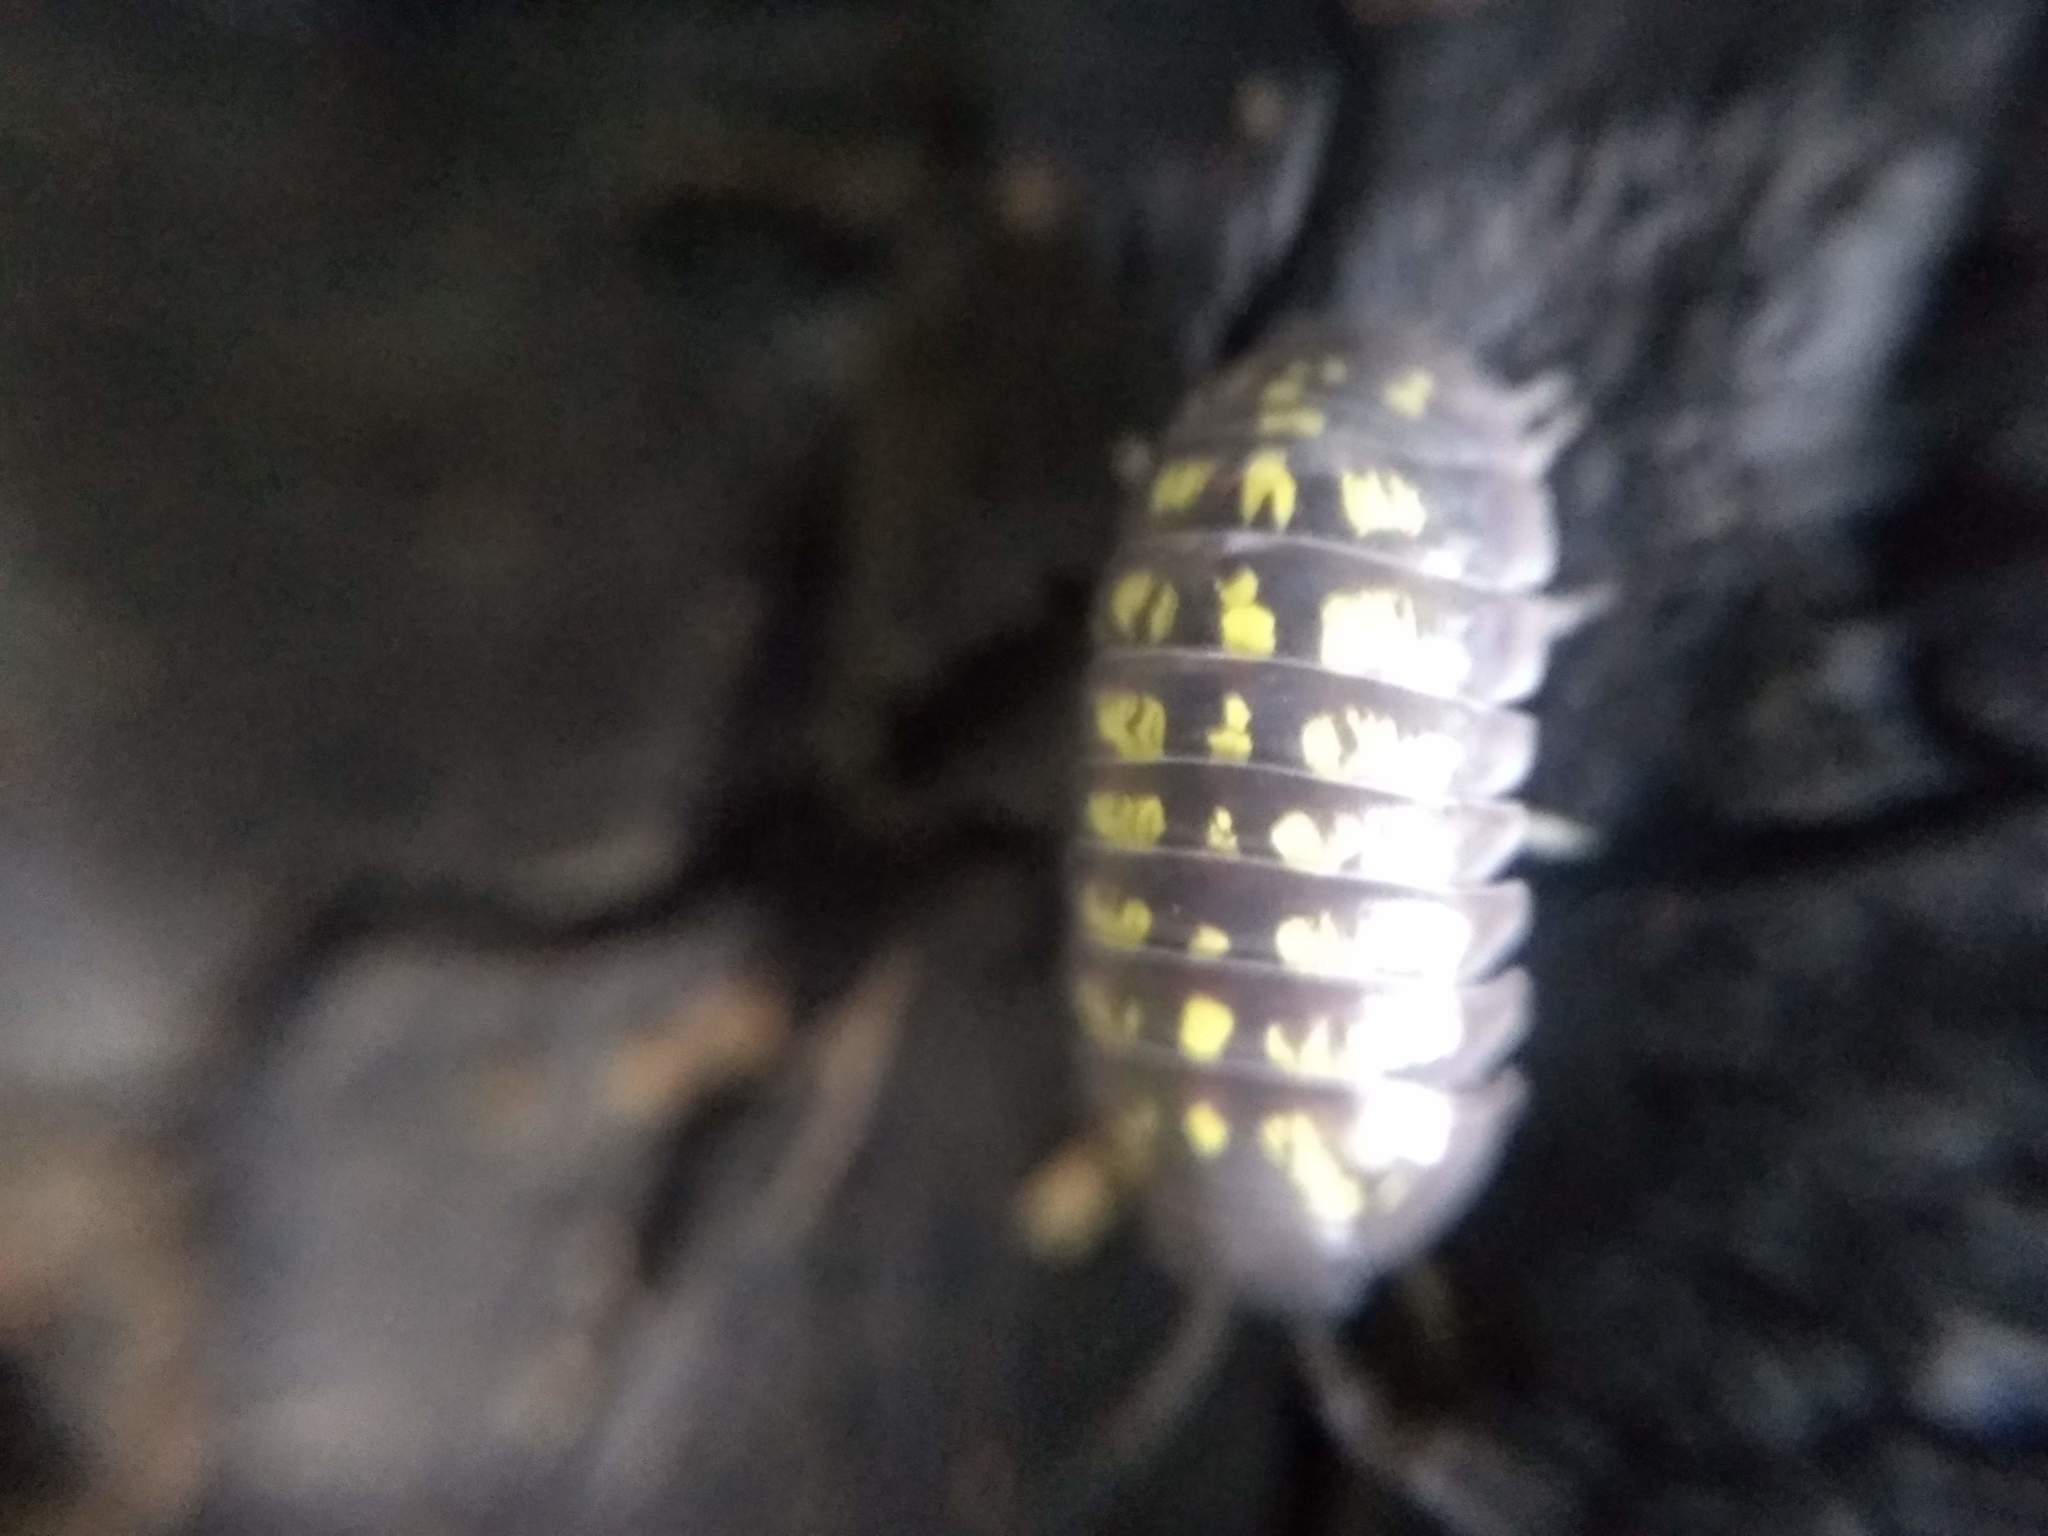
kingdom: Animalia
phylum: Arthropoda
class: Malacostraca
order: Isopoda
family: Armadillidiidae
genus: Armadillidium
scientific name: Armadillidium vulgare
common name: Common pill woodlouse
